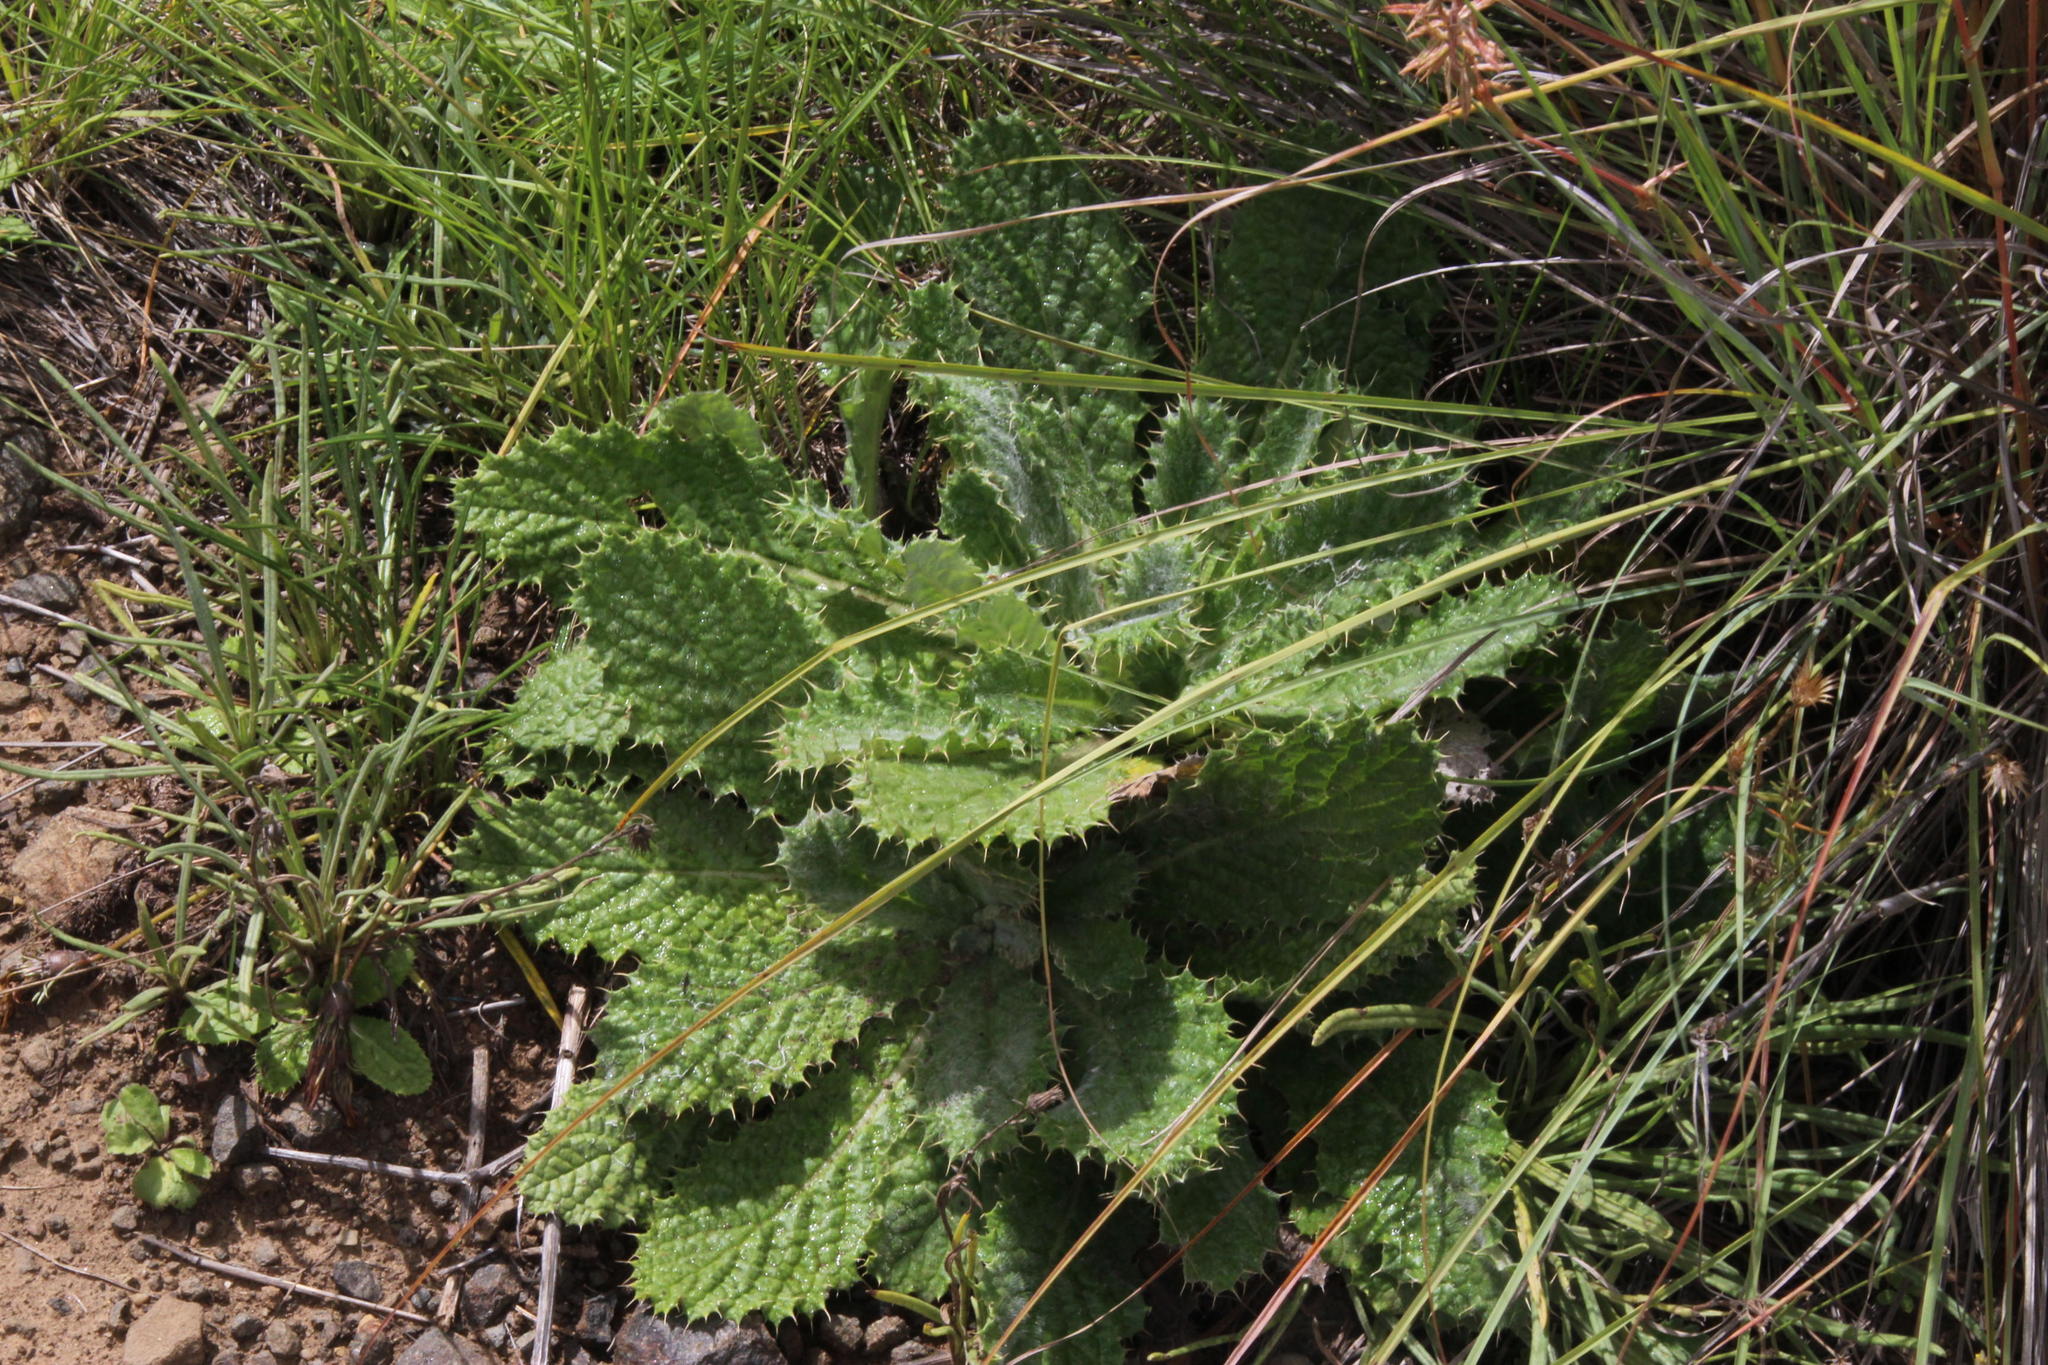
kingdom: Plantae
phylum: Tracheophyta
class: Magnoliopsida
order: Asterales
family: Asteraceae
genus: Berkheya
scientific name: Berkheya buphthalmoides
